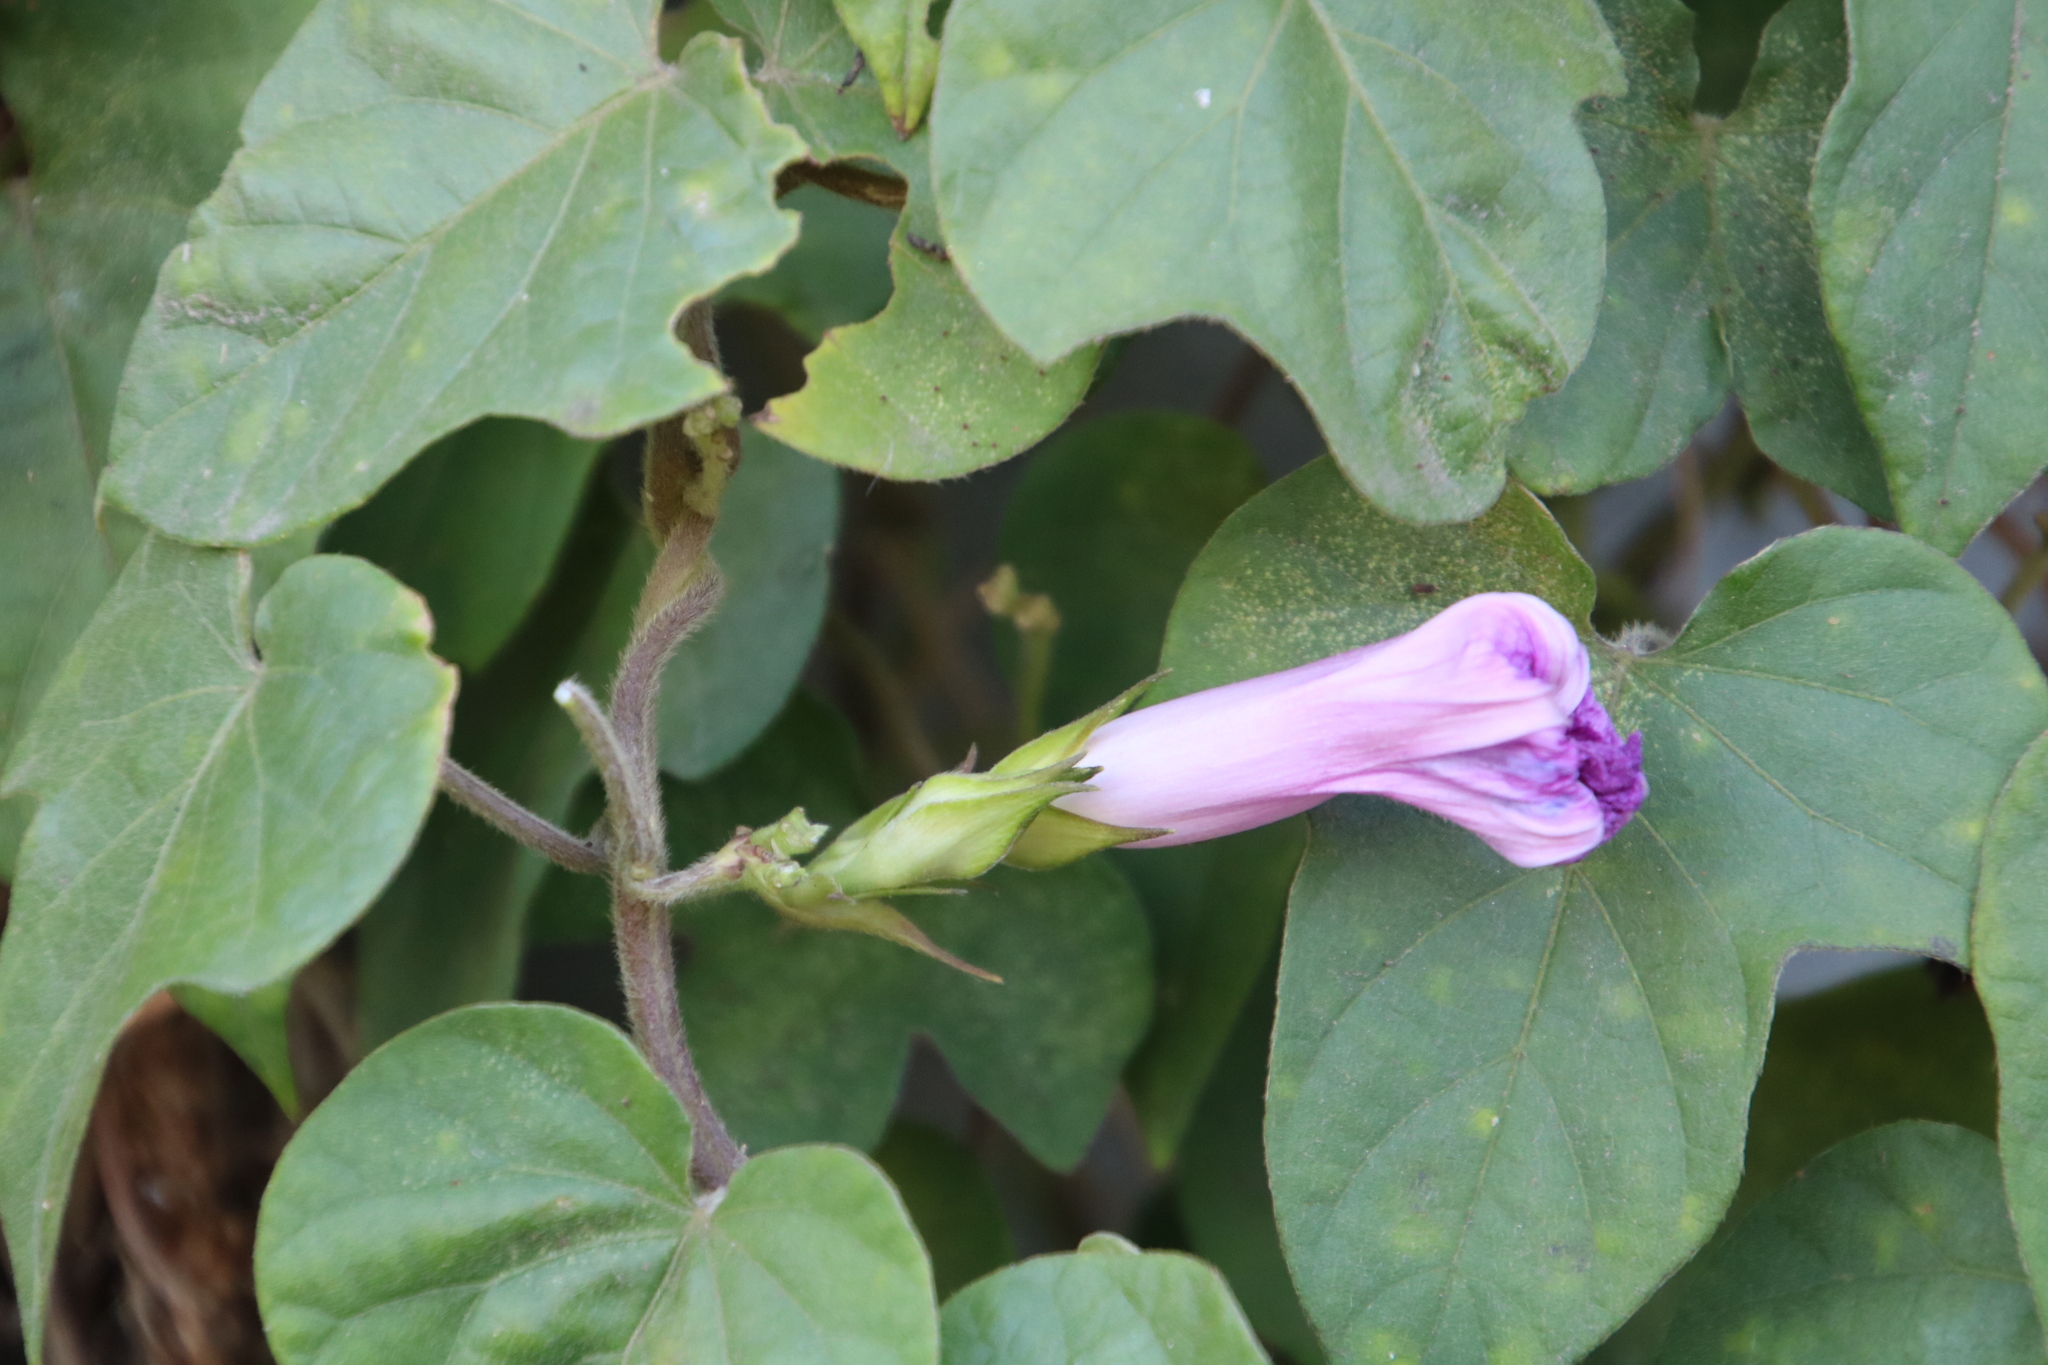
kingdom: Plantae
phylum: Tracheophyta
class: Magnoliopsida
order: Solanales
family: Convolvulaceae
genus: Ipomoea
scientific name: Ipomoea indica
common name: Blue dawnflower
